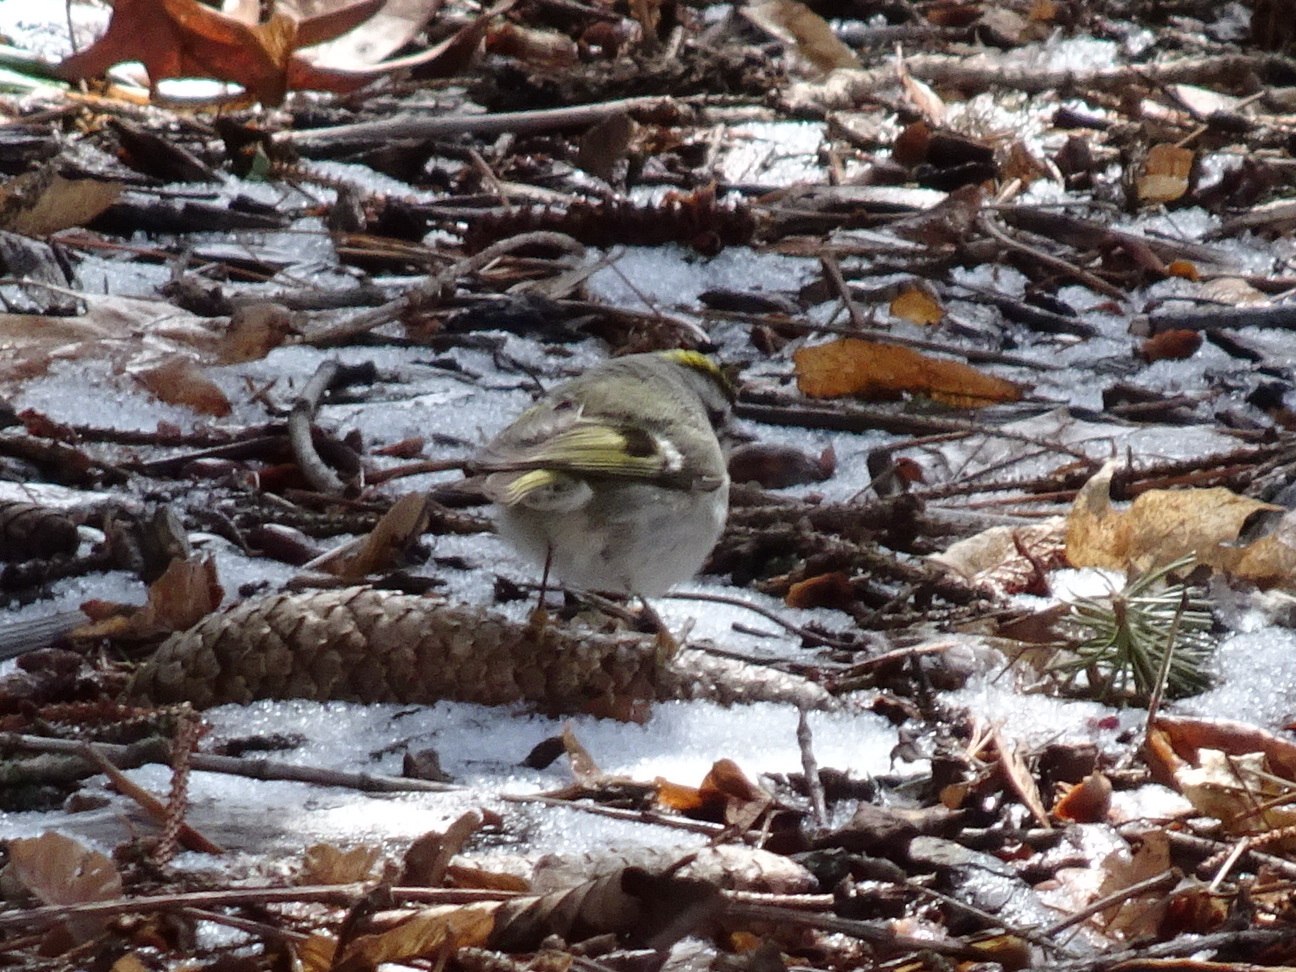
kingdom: Animalia
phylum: Chordata
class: Aves
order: Passeriformes
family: Regulidae
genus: Regulus
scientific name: Regulus satrapa
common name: Golden-crowned kinglet
